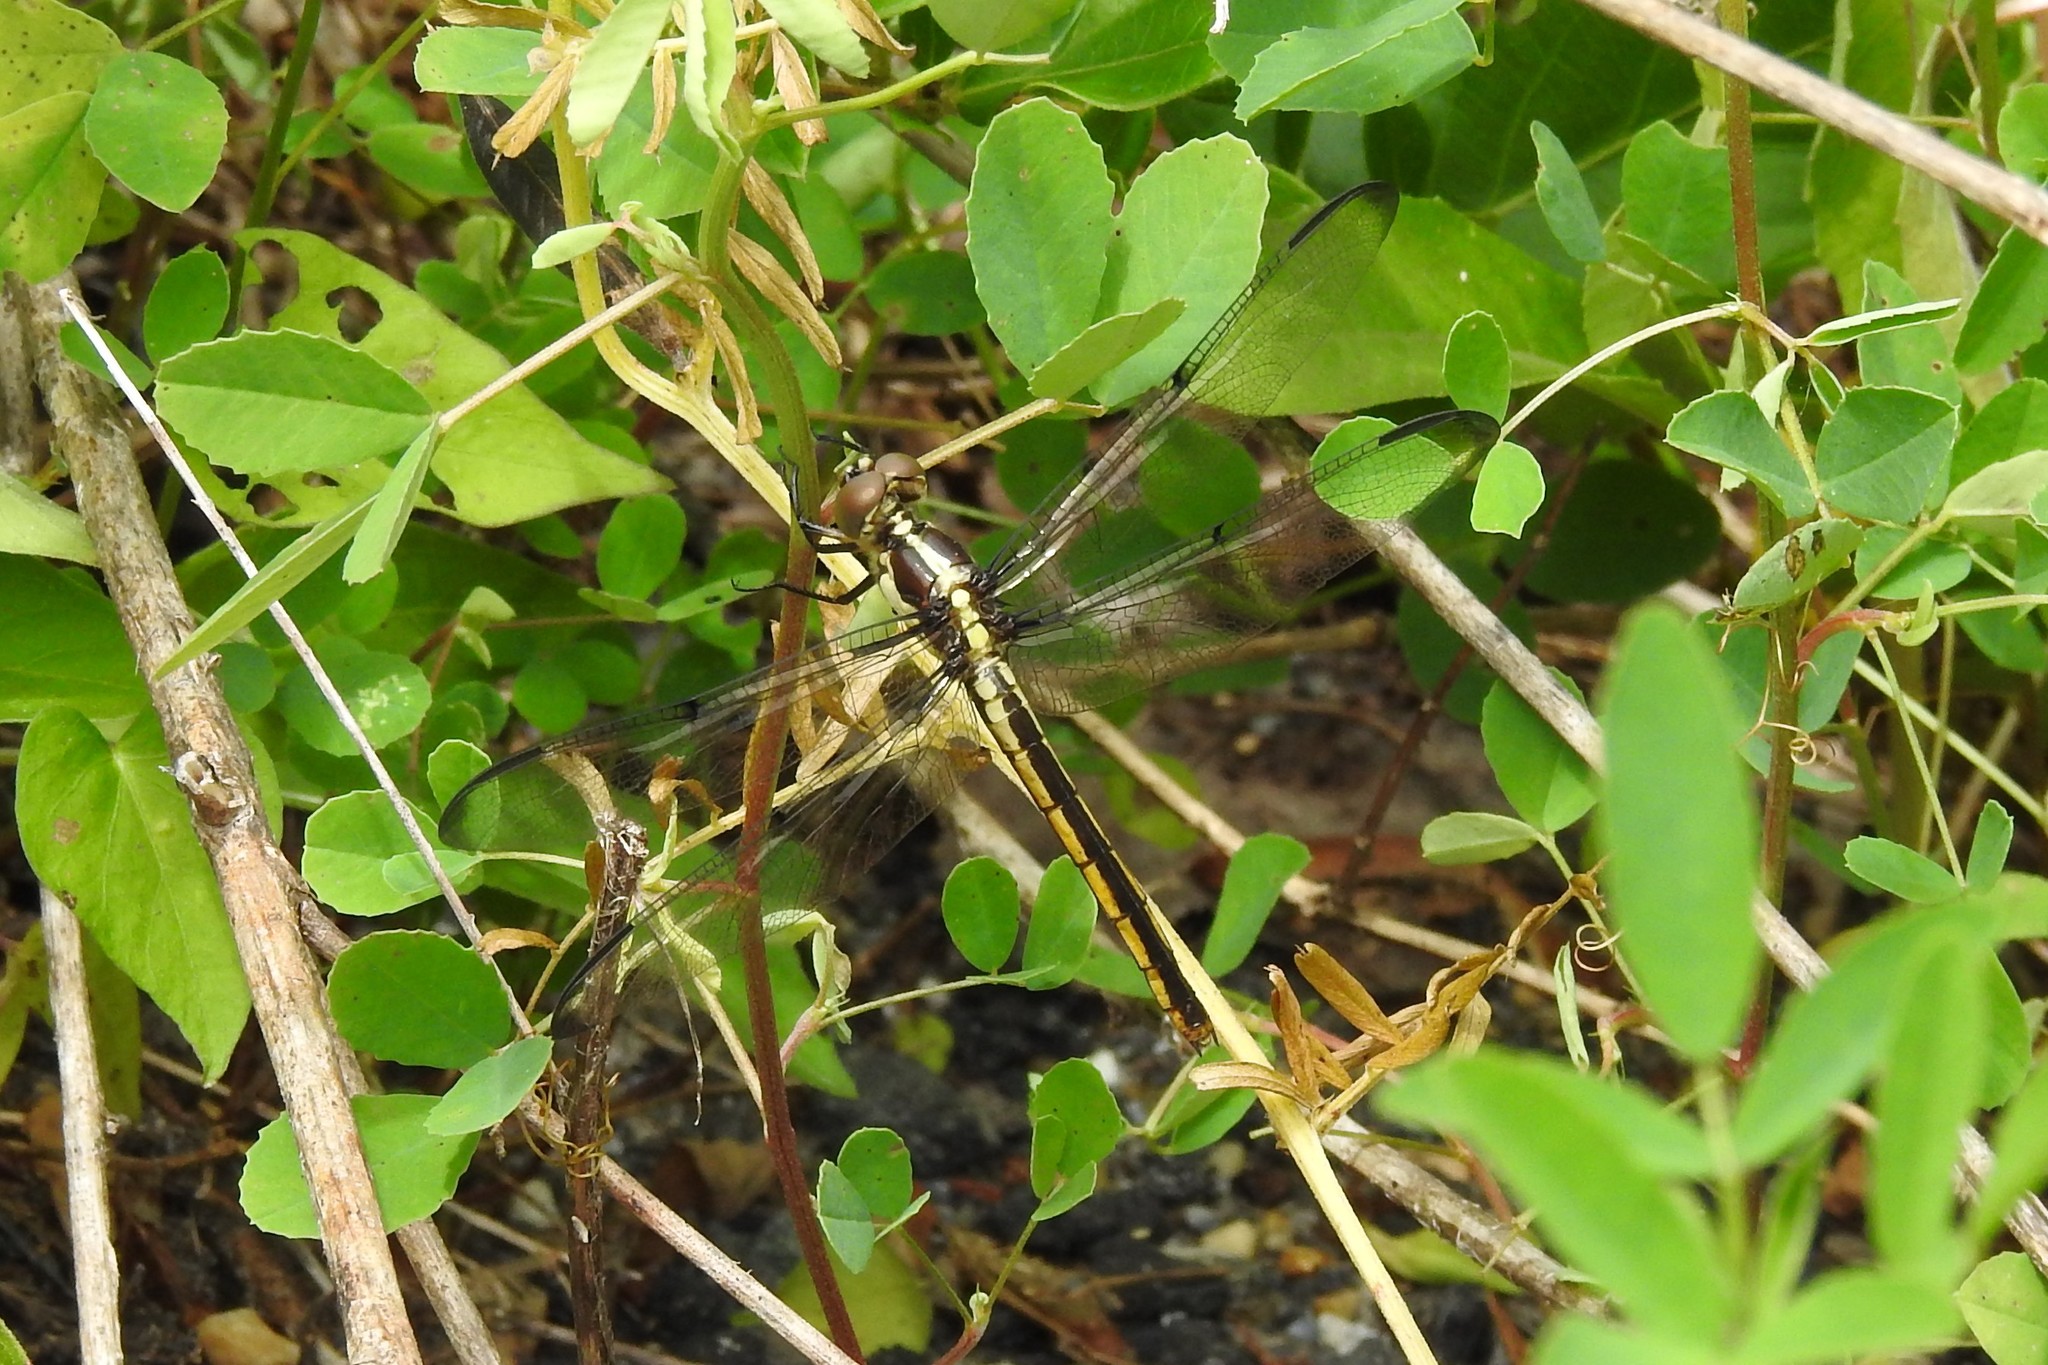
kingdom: Animalia
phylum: Arthropoda
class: Insecta
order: Odonata
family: Libellulidae
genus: Libellula
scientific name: Libellula vibrans
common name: Great blue skimmer
